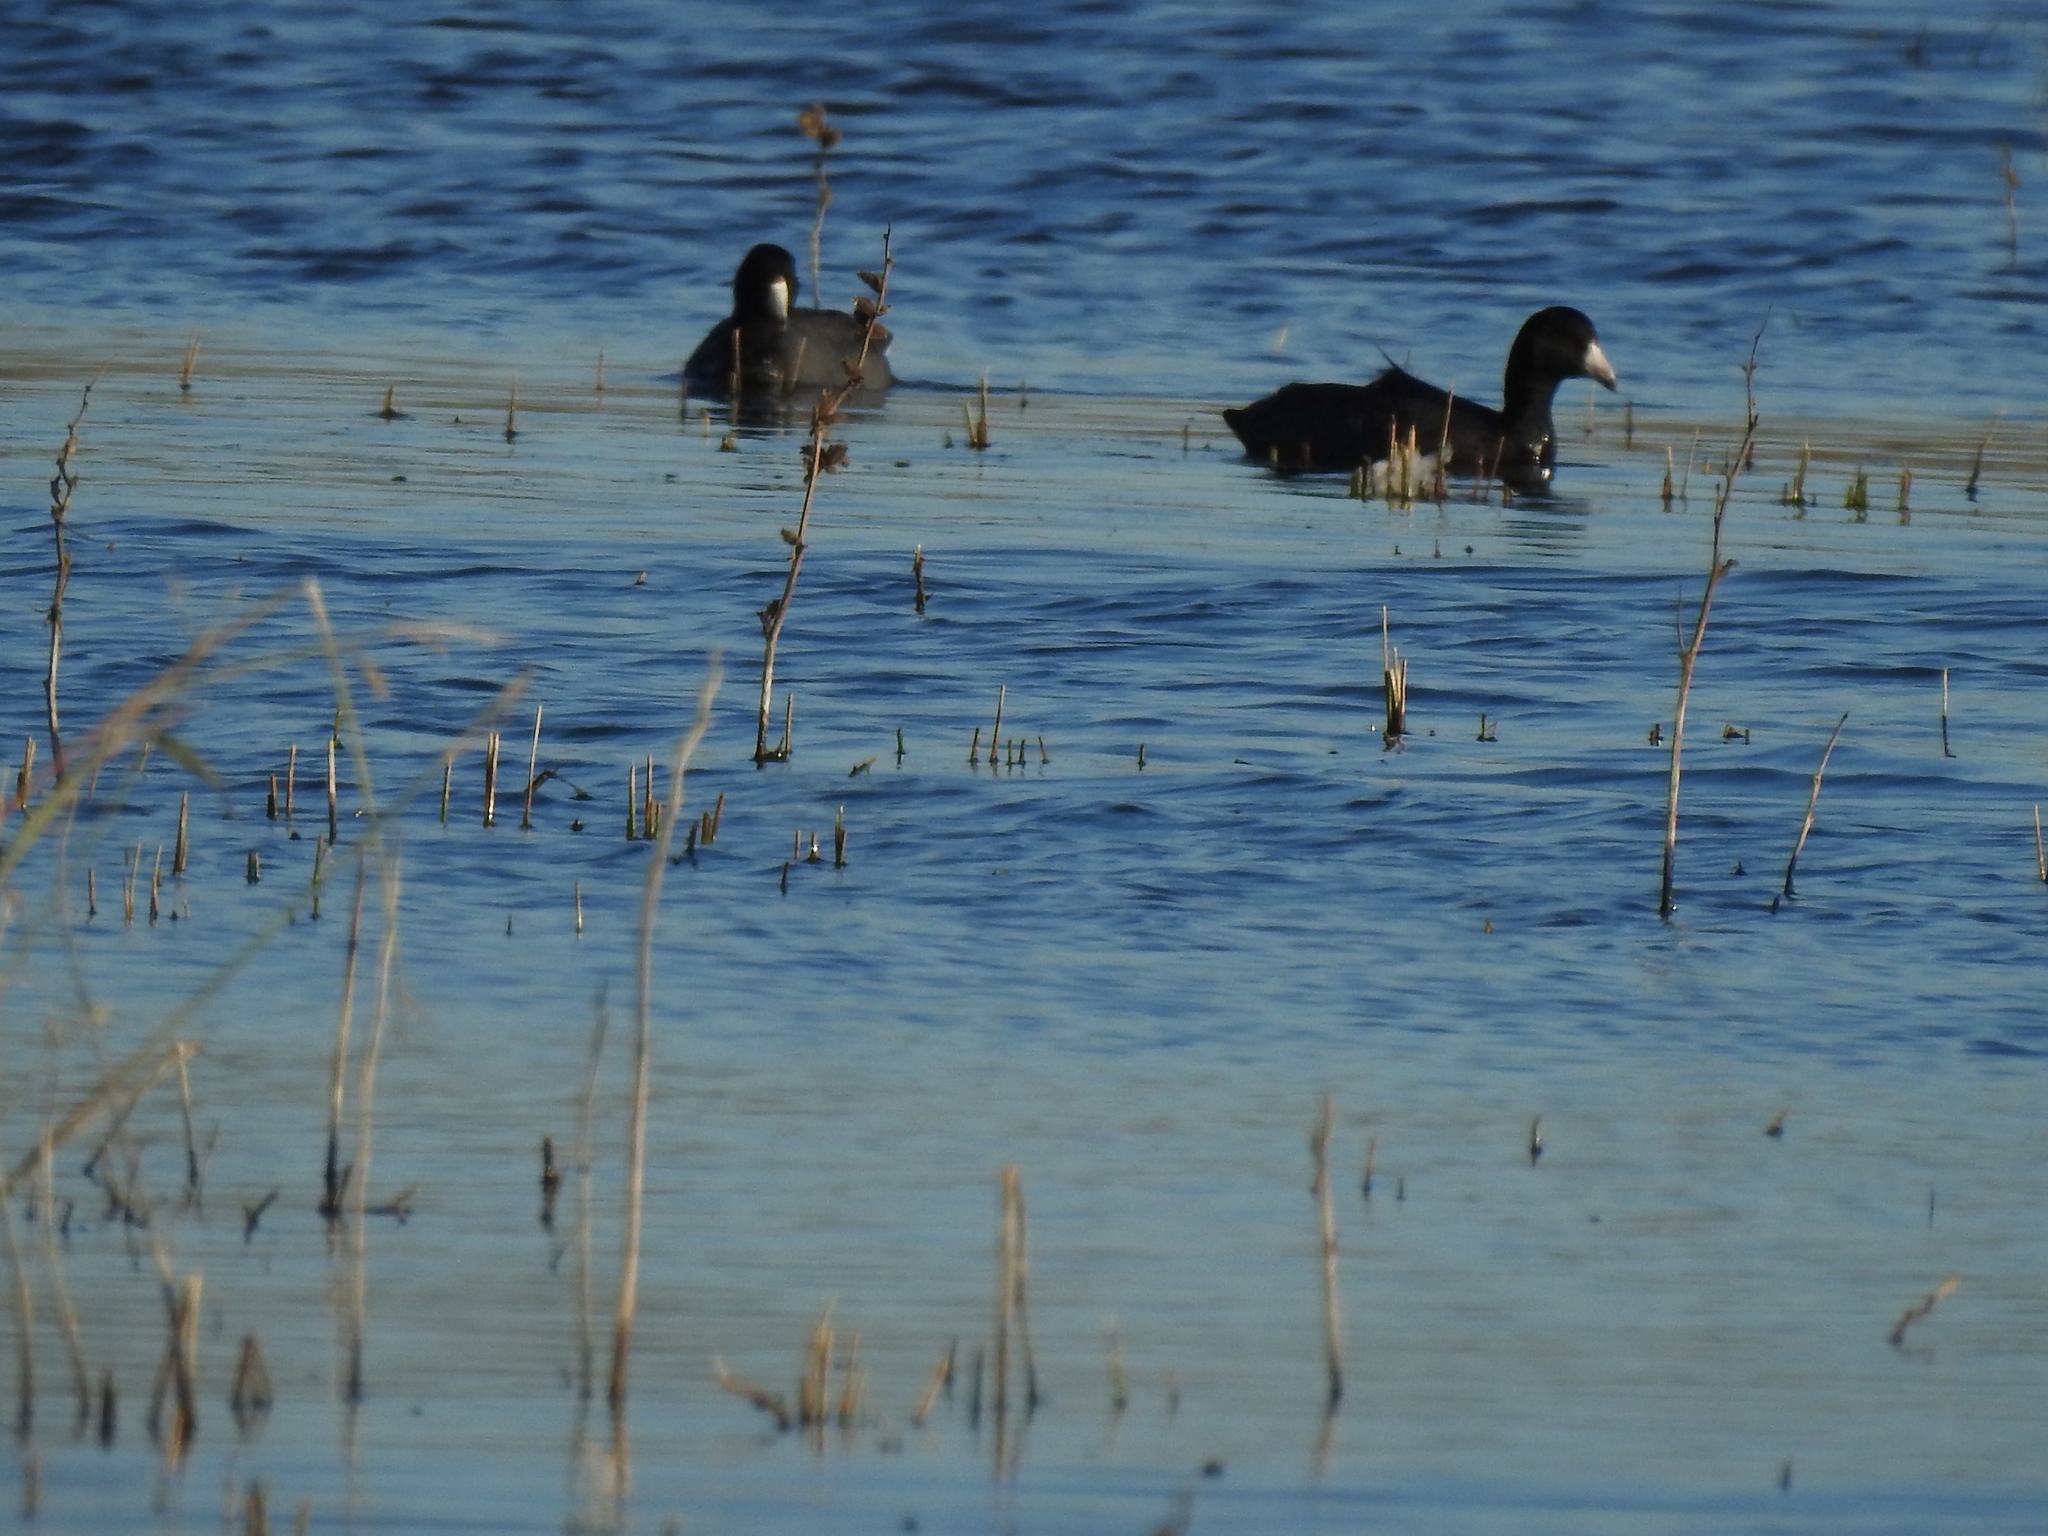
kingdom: Animalia
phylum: Chordata
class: Aves
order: Gruiformes
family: Rallidae
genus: Fulica
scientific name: Fulica americana
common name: American coot
